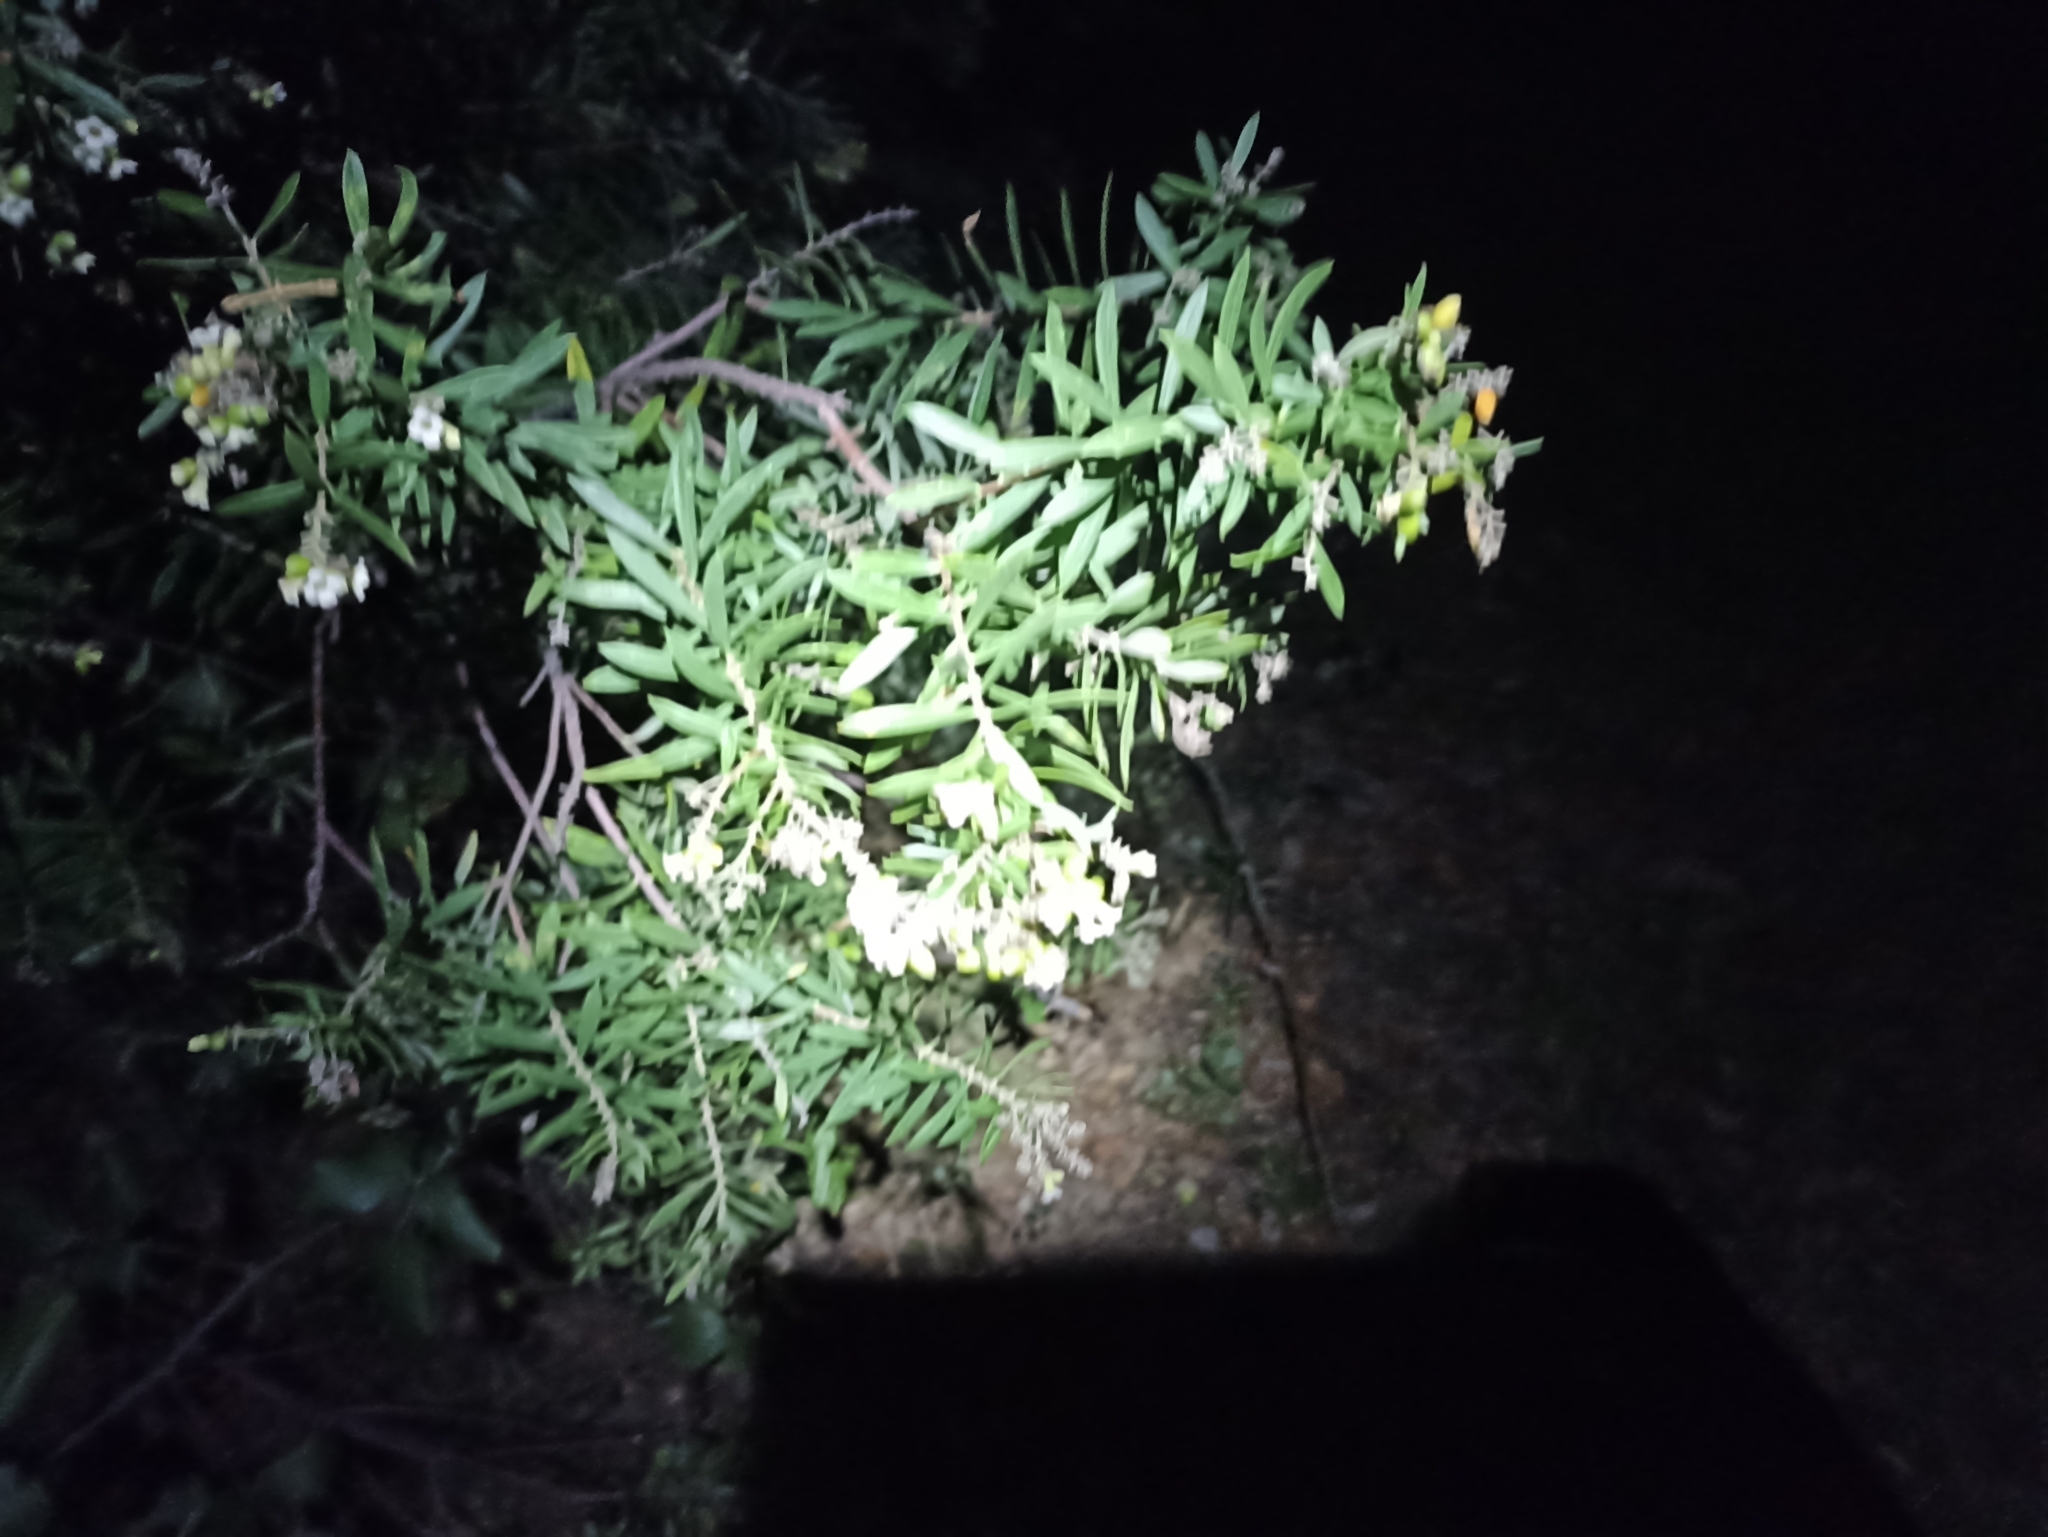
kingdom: Plantae
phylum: Tracheophyta
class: Magnoliopsida
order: Malvales
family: Thymelaeaceae
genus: Daphne
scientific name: Daphne gnidium
